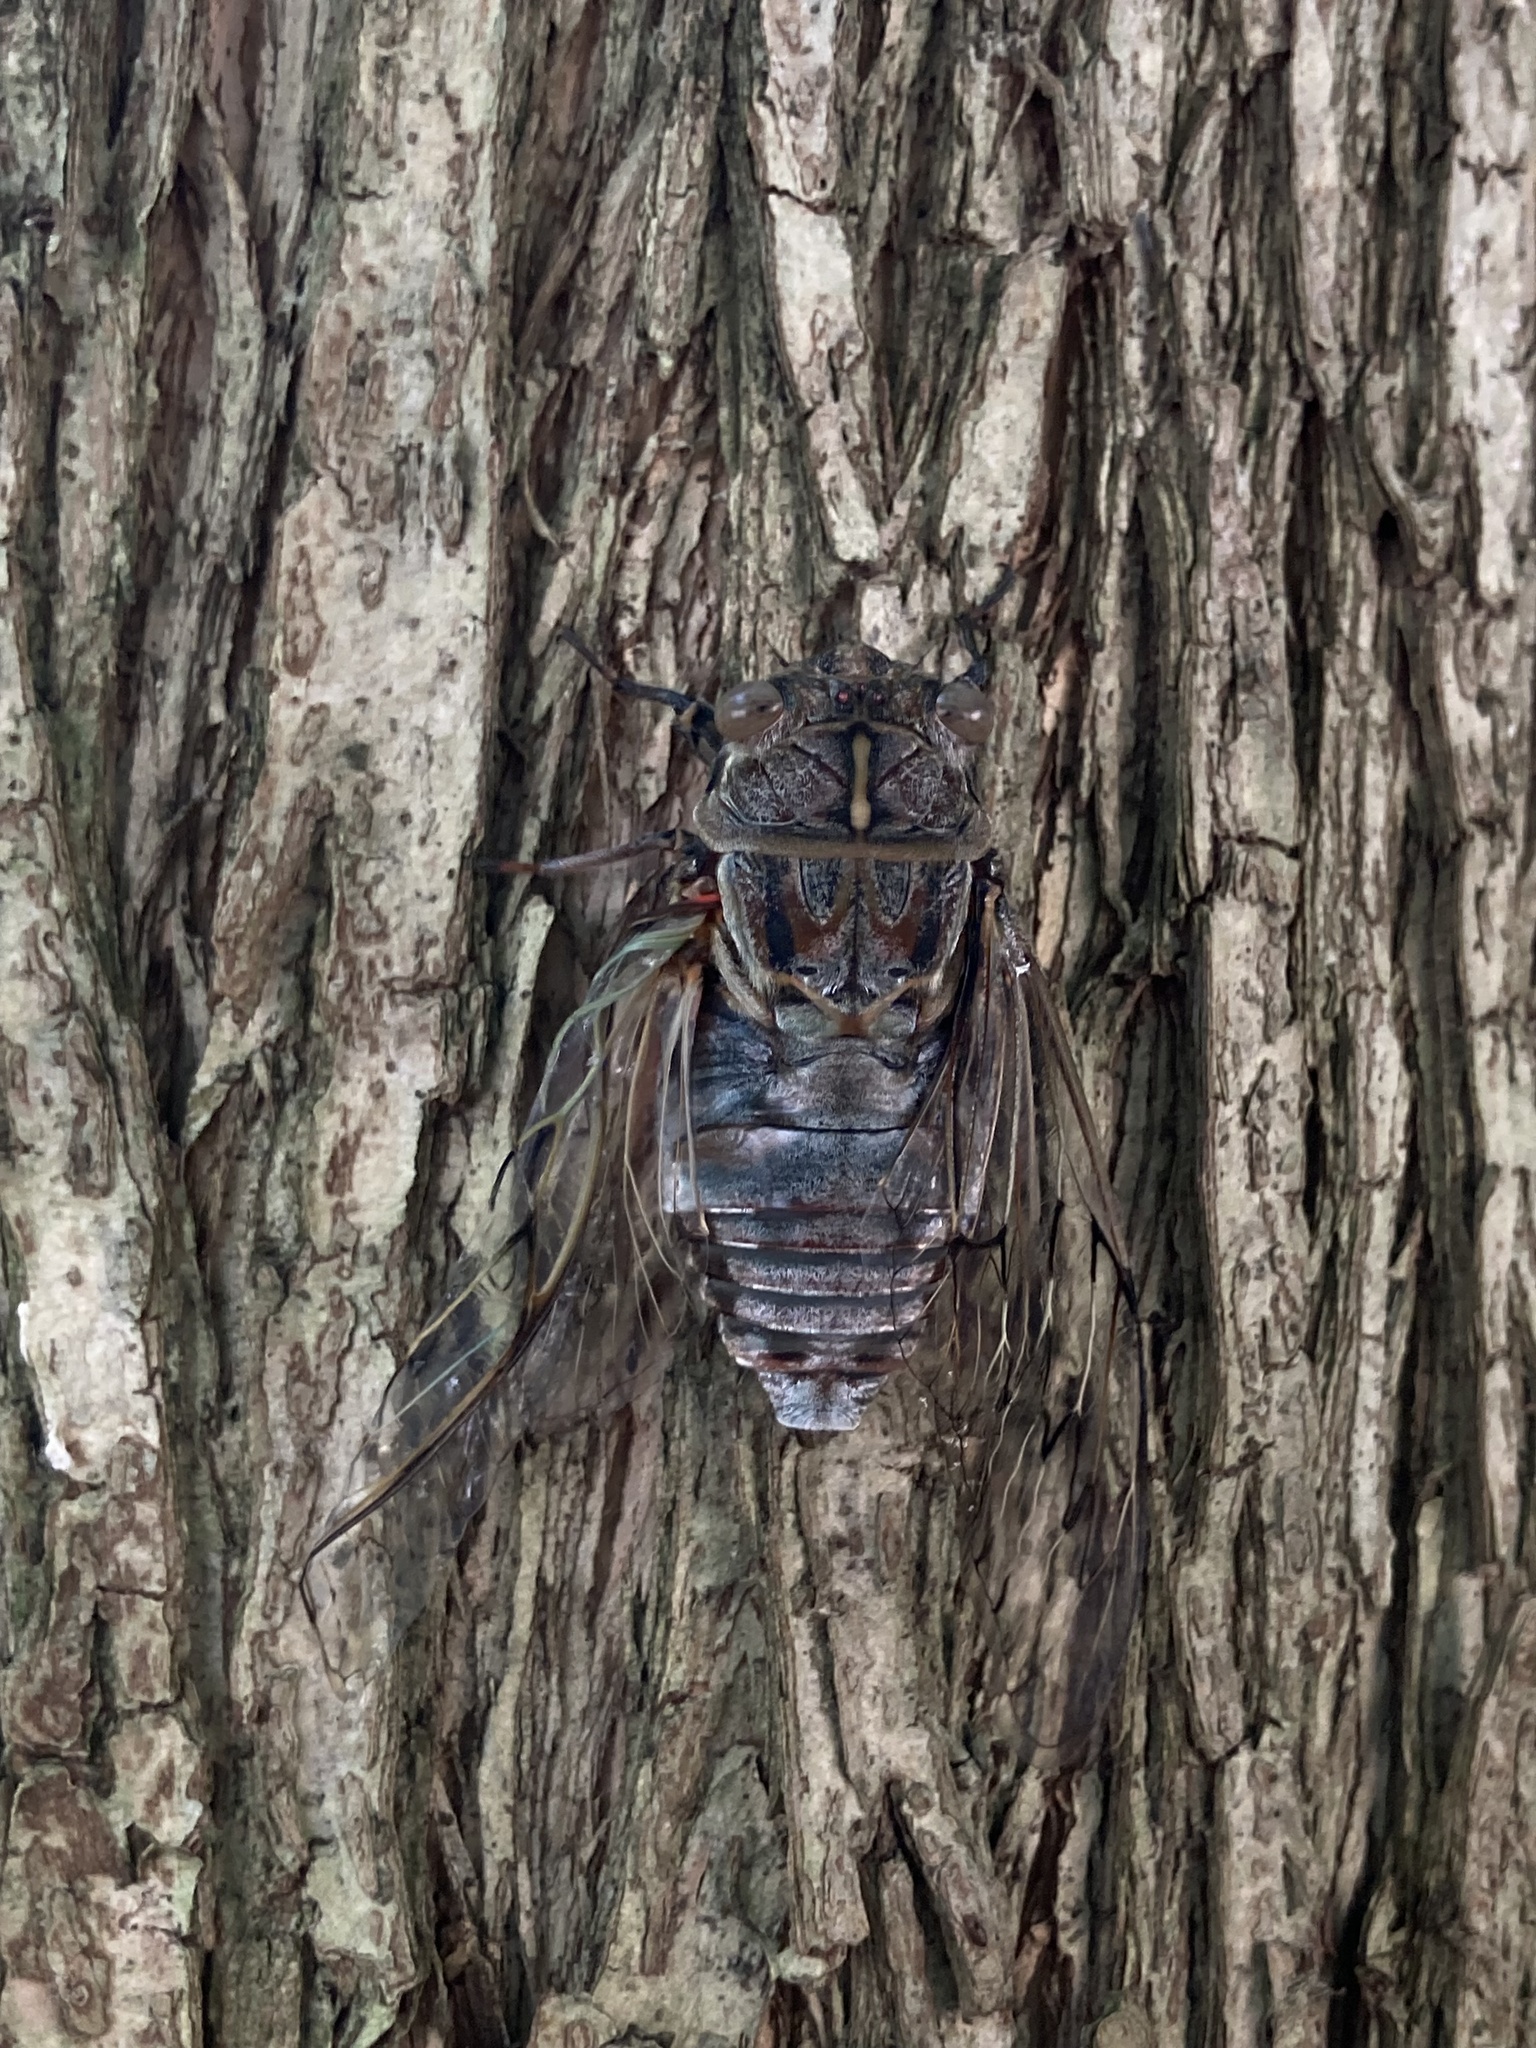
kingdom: Animalia
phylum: Arthropoda
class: Insecta
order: Hemiptera
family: Cicadidae
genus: Henicopsaltria
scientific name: Henicopsaltria eydouxii
